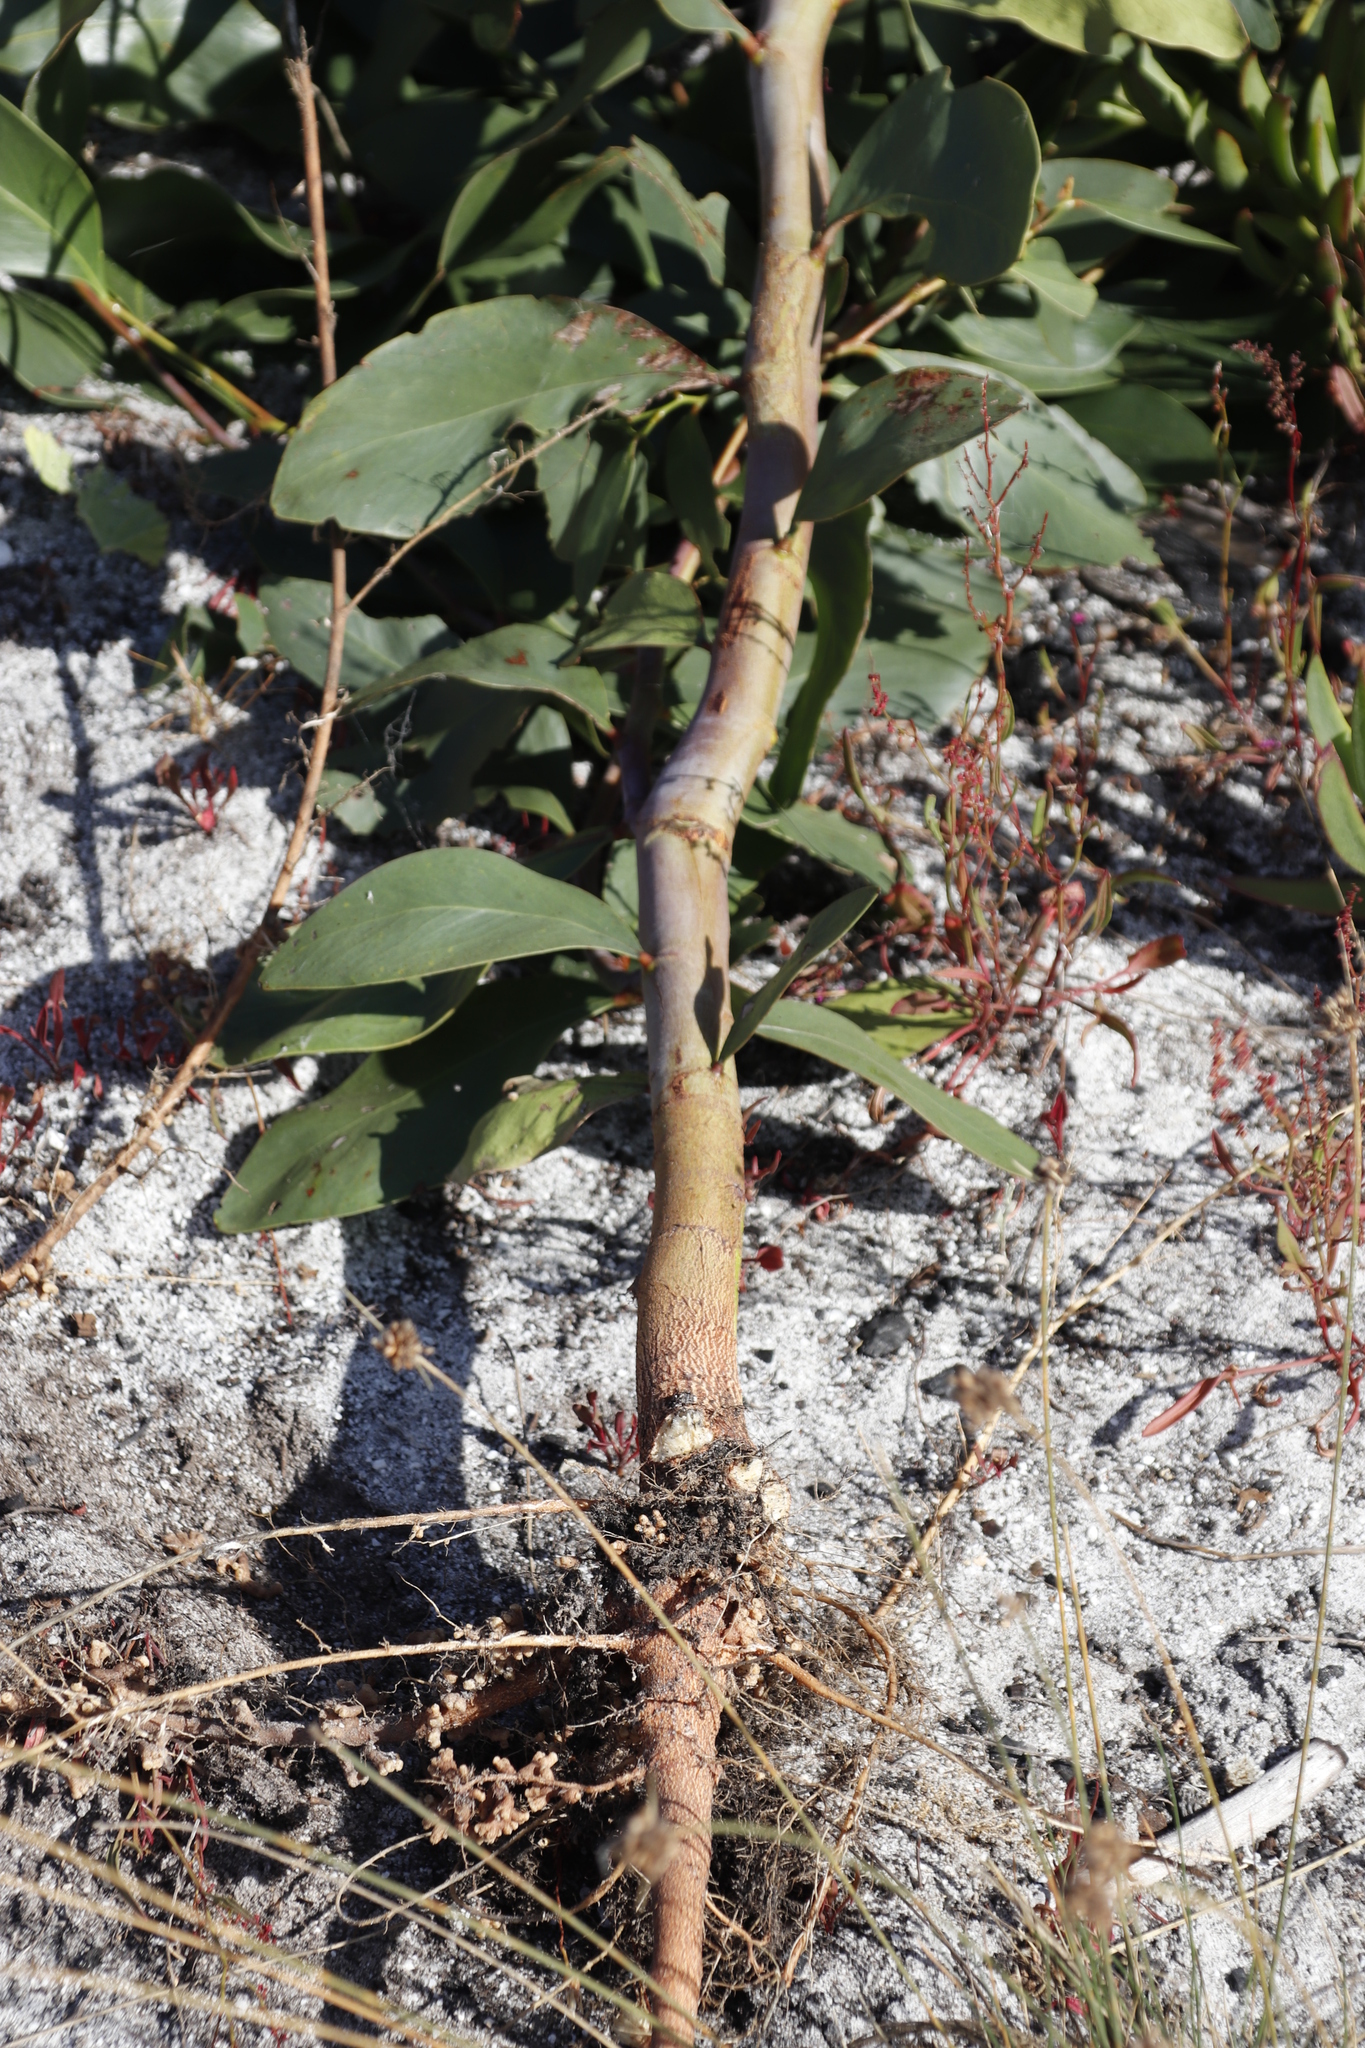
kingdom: Plantae
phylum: Tracheophyta
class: Magnoliopsida
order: Fabales
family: Fabaceae
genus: Acacia
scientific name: Acacia pycnantha
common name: Golden wattle
